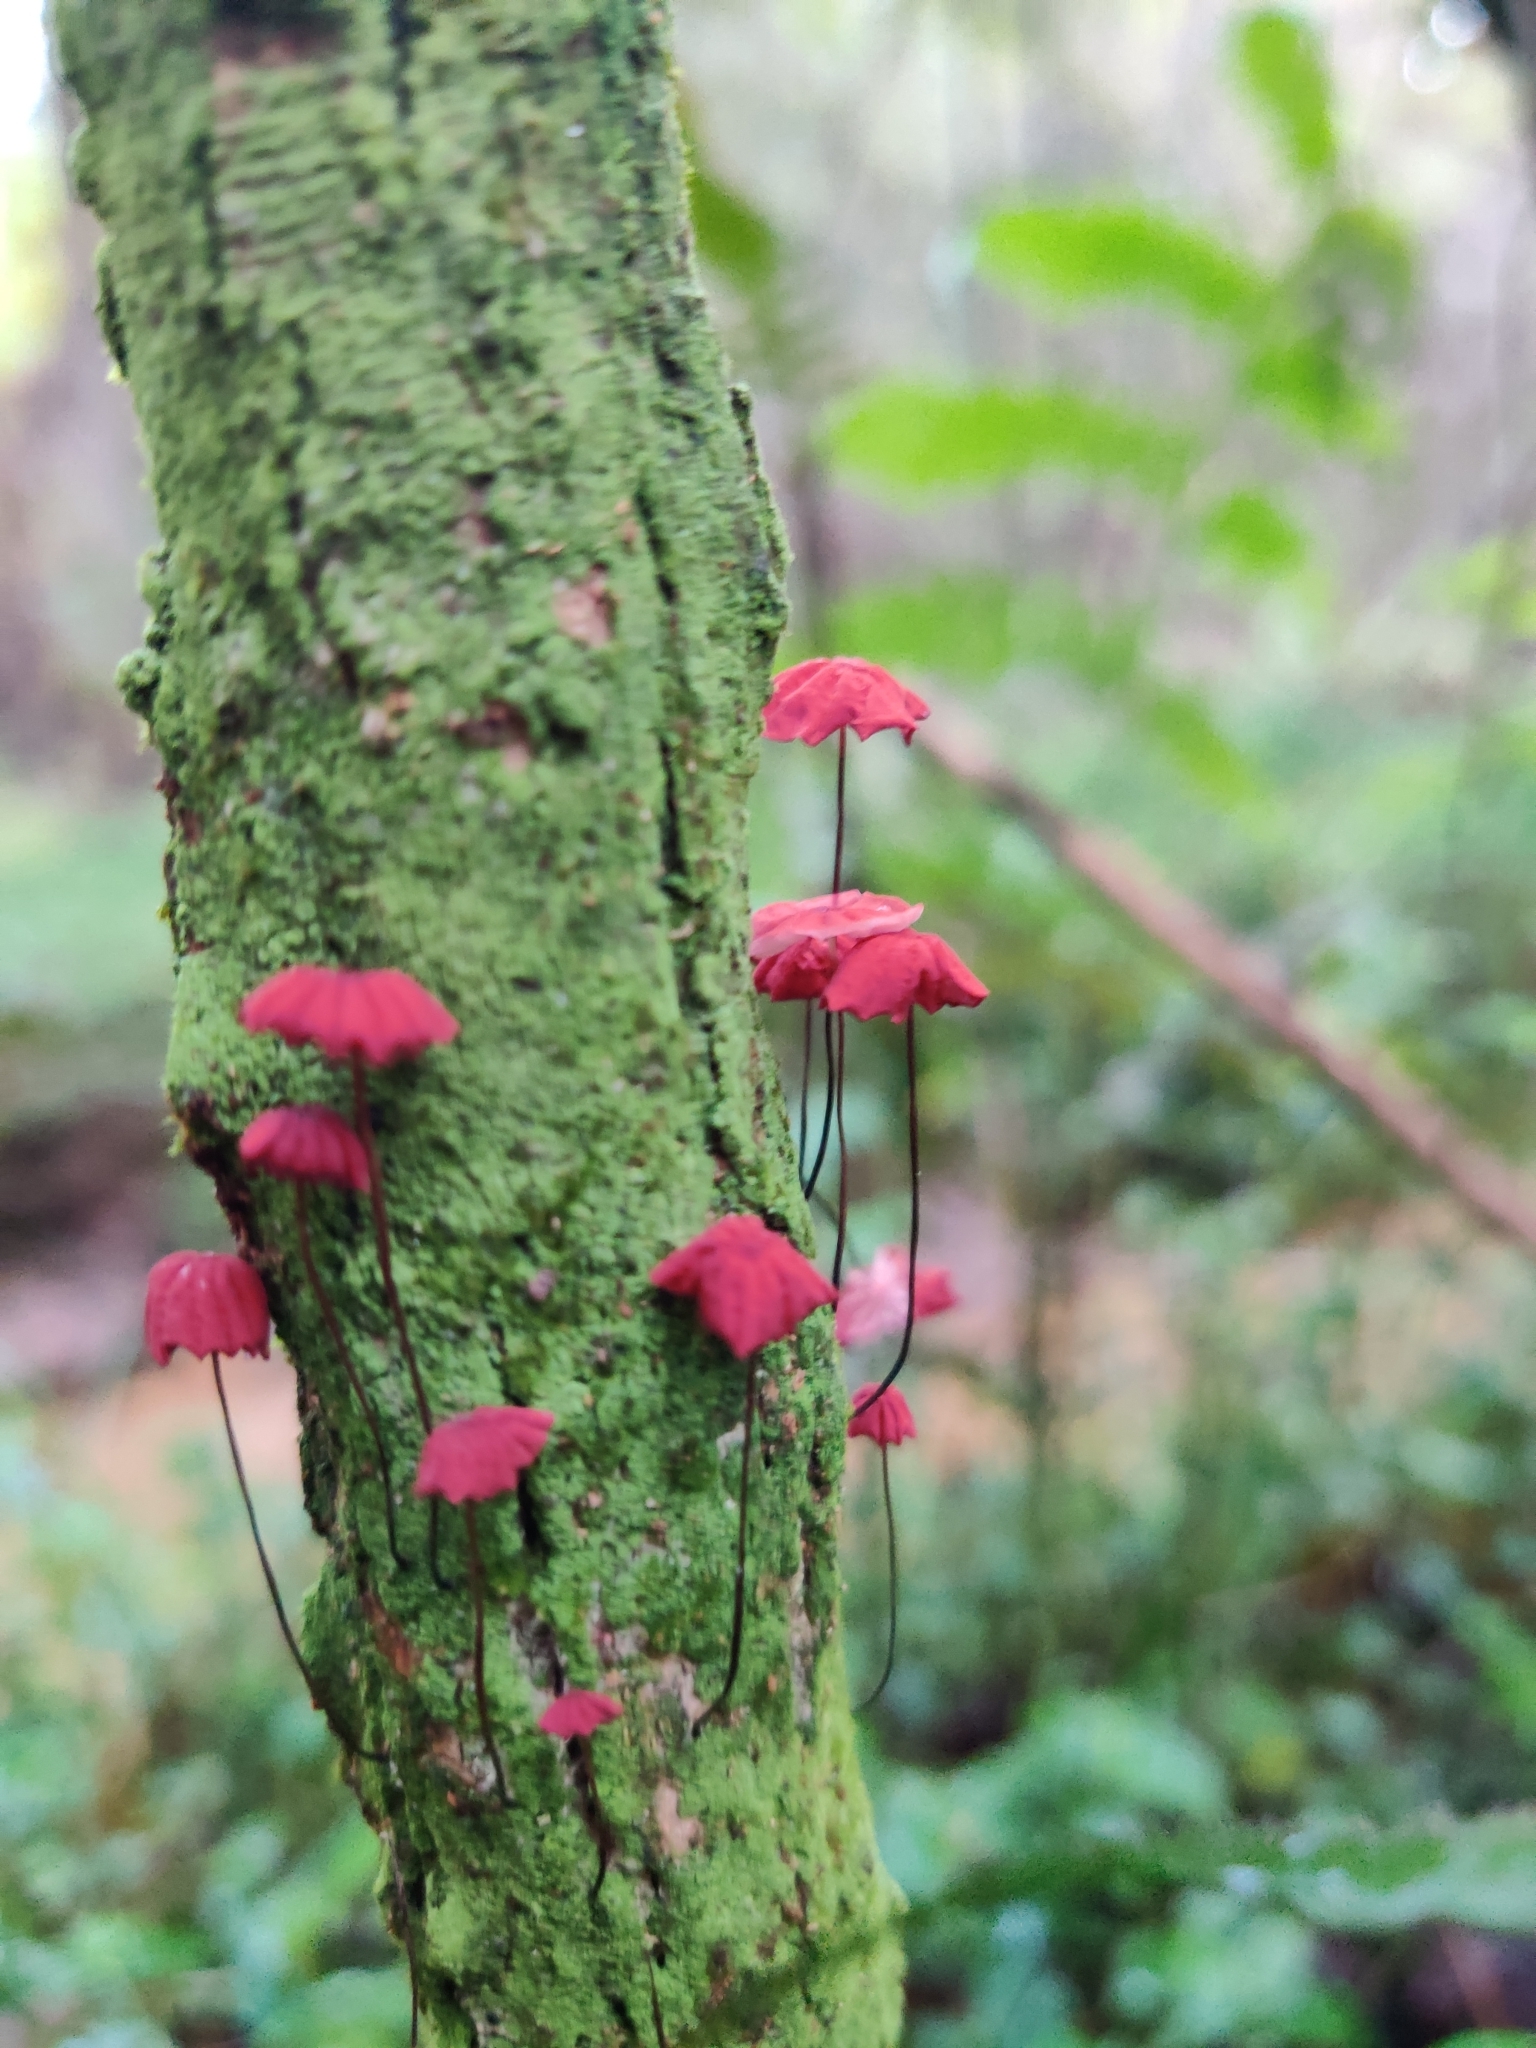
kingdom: Fungi
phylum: Basidiomycota
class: Agaricomycetes
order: Agaricales
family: Marasmiaceae
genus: Marasmius
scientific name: Marasmius haematocephalus
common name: Purple pinwheel
